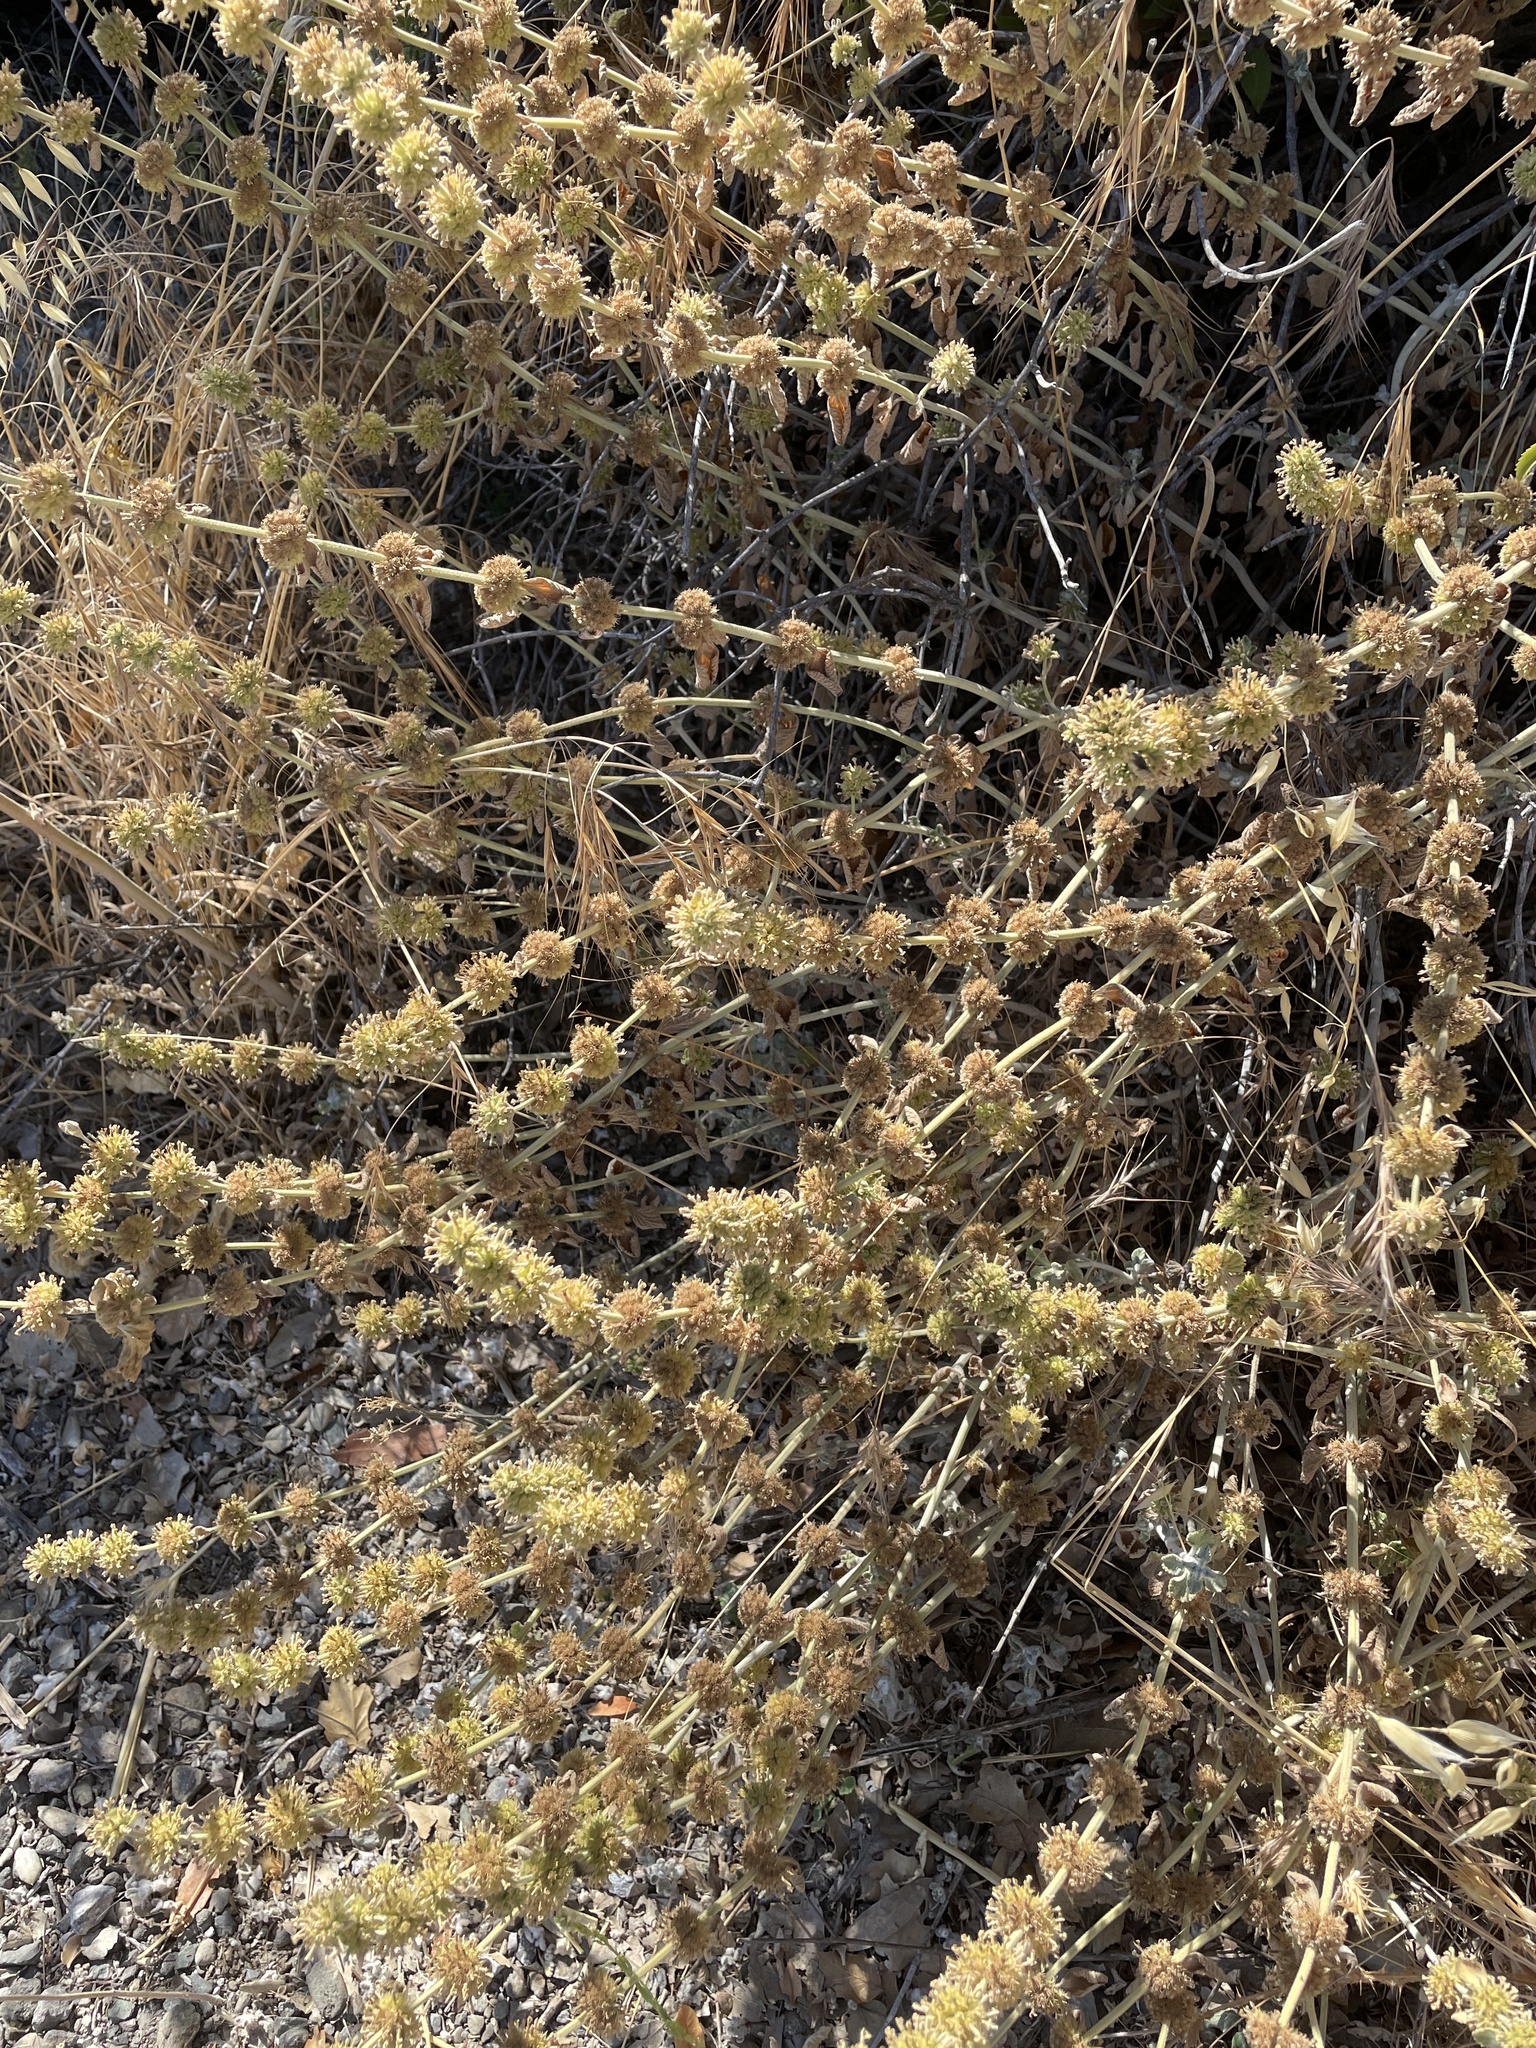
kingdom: Plantae
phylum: Tracheophyta
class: Magnoliopsida
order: Lamiales
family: Lamiaceae
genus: Marrubium
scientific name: Marrubium vulgare
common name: Horehound
